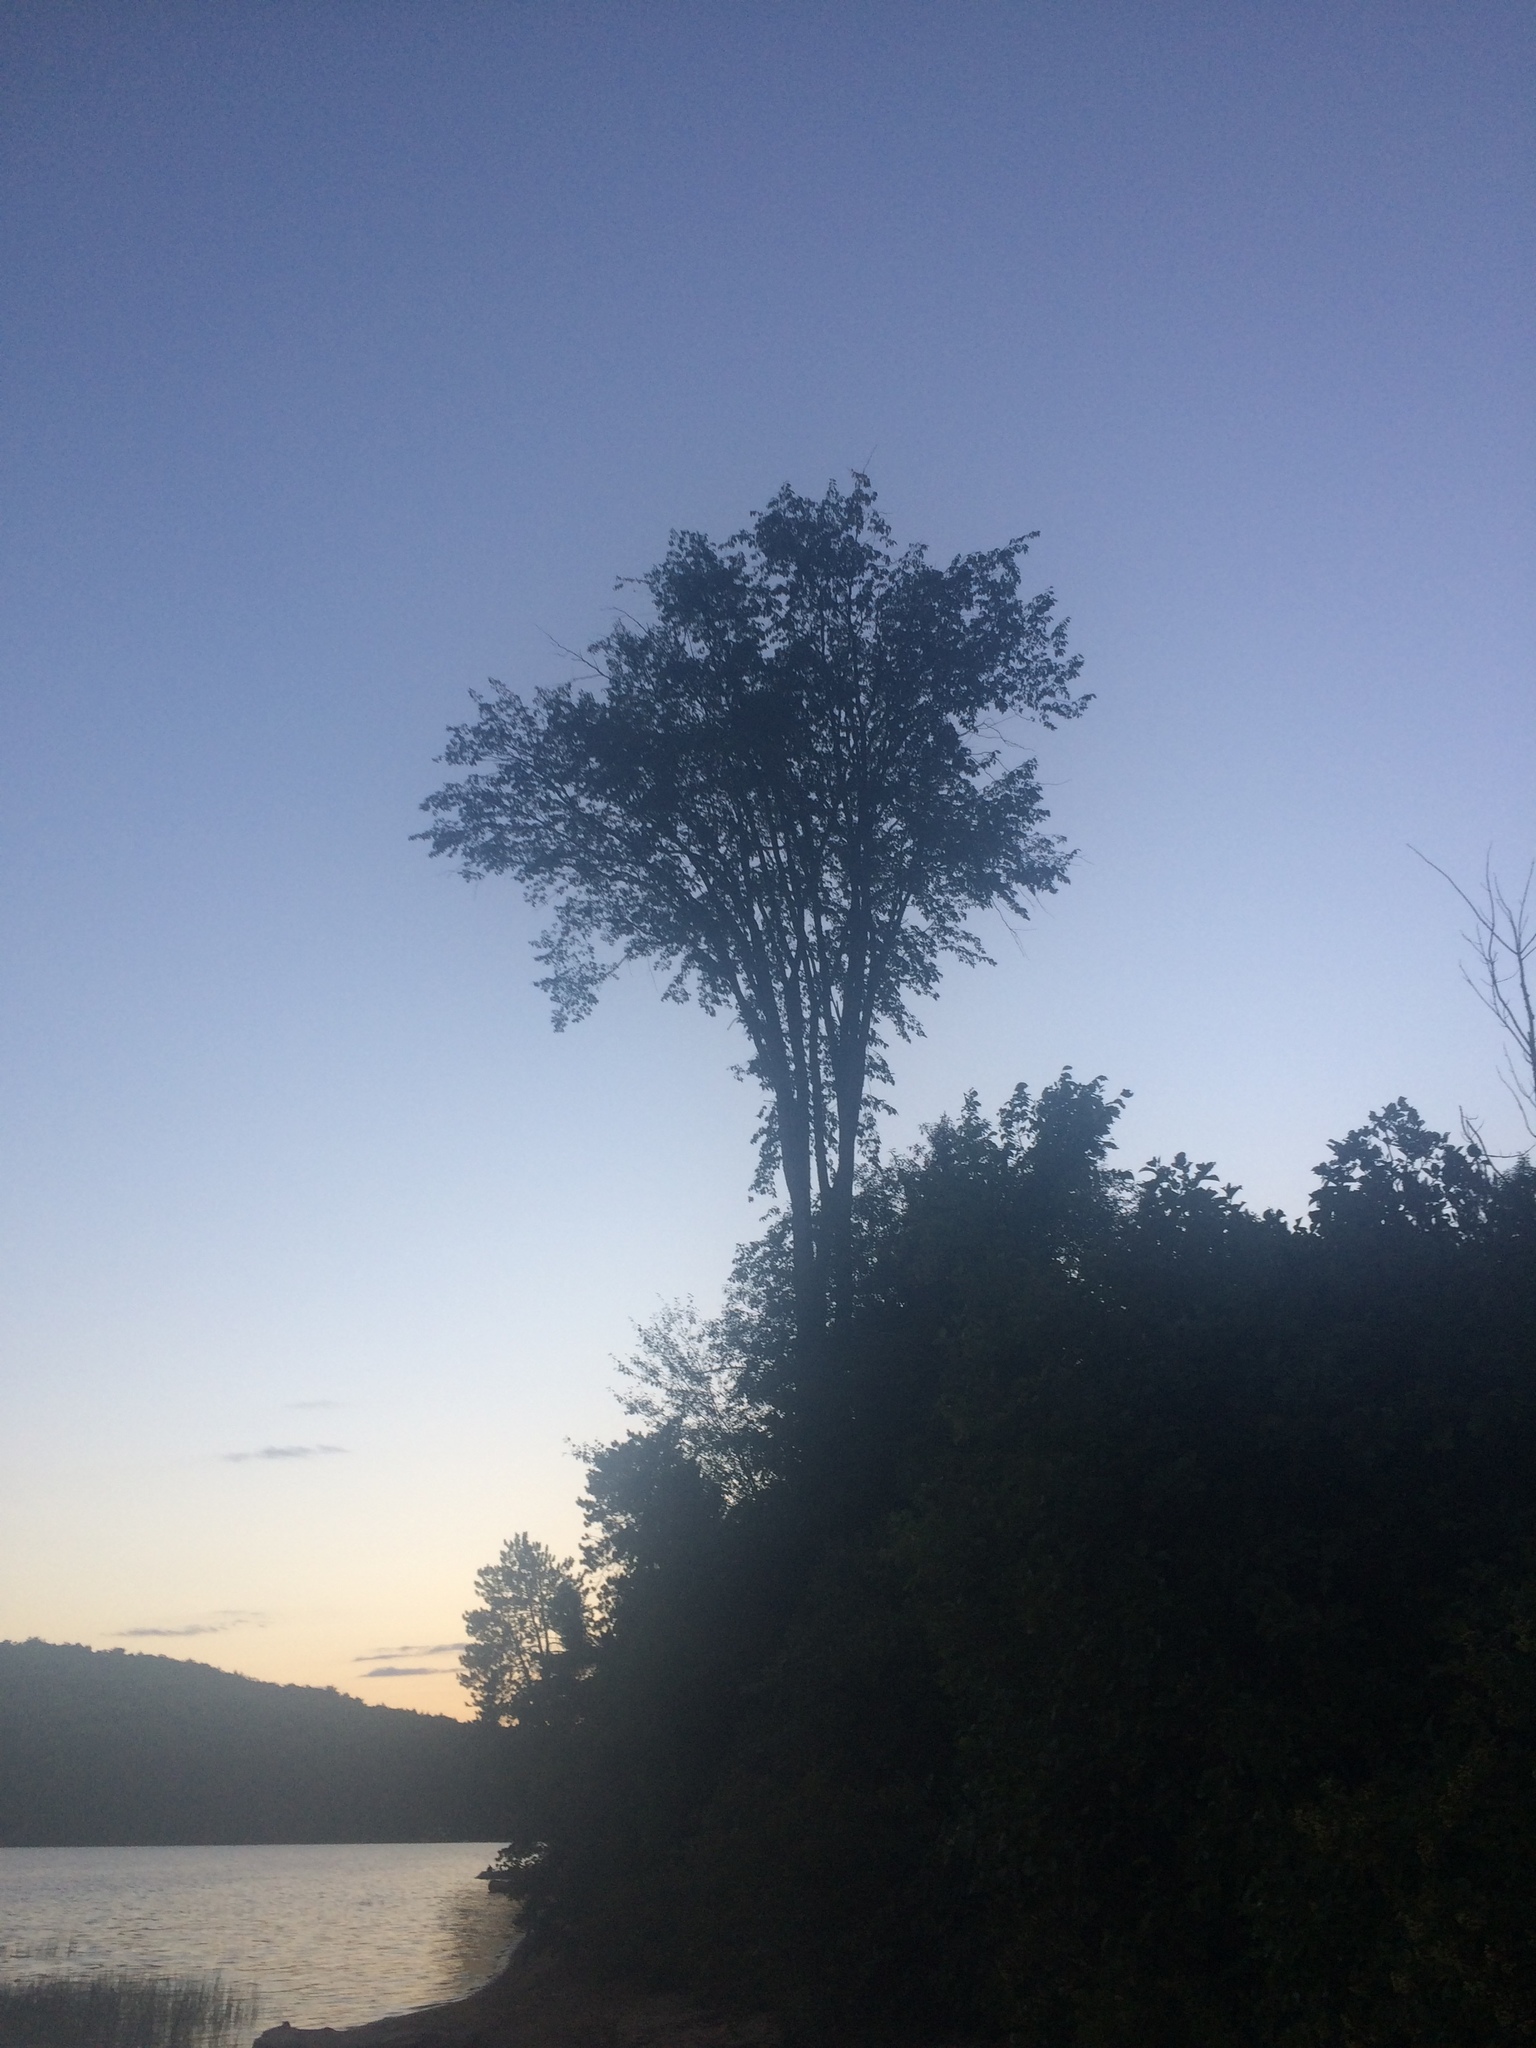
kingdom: Plantae
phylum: Tracheophyta
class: Magnoliopsida
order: Rosales
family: Ulmaceae
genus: Ulmus
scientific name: Ulmus americana
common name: American elm
